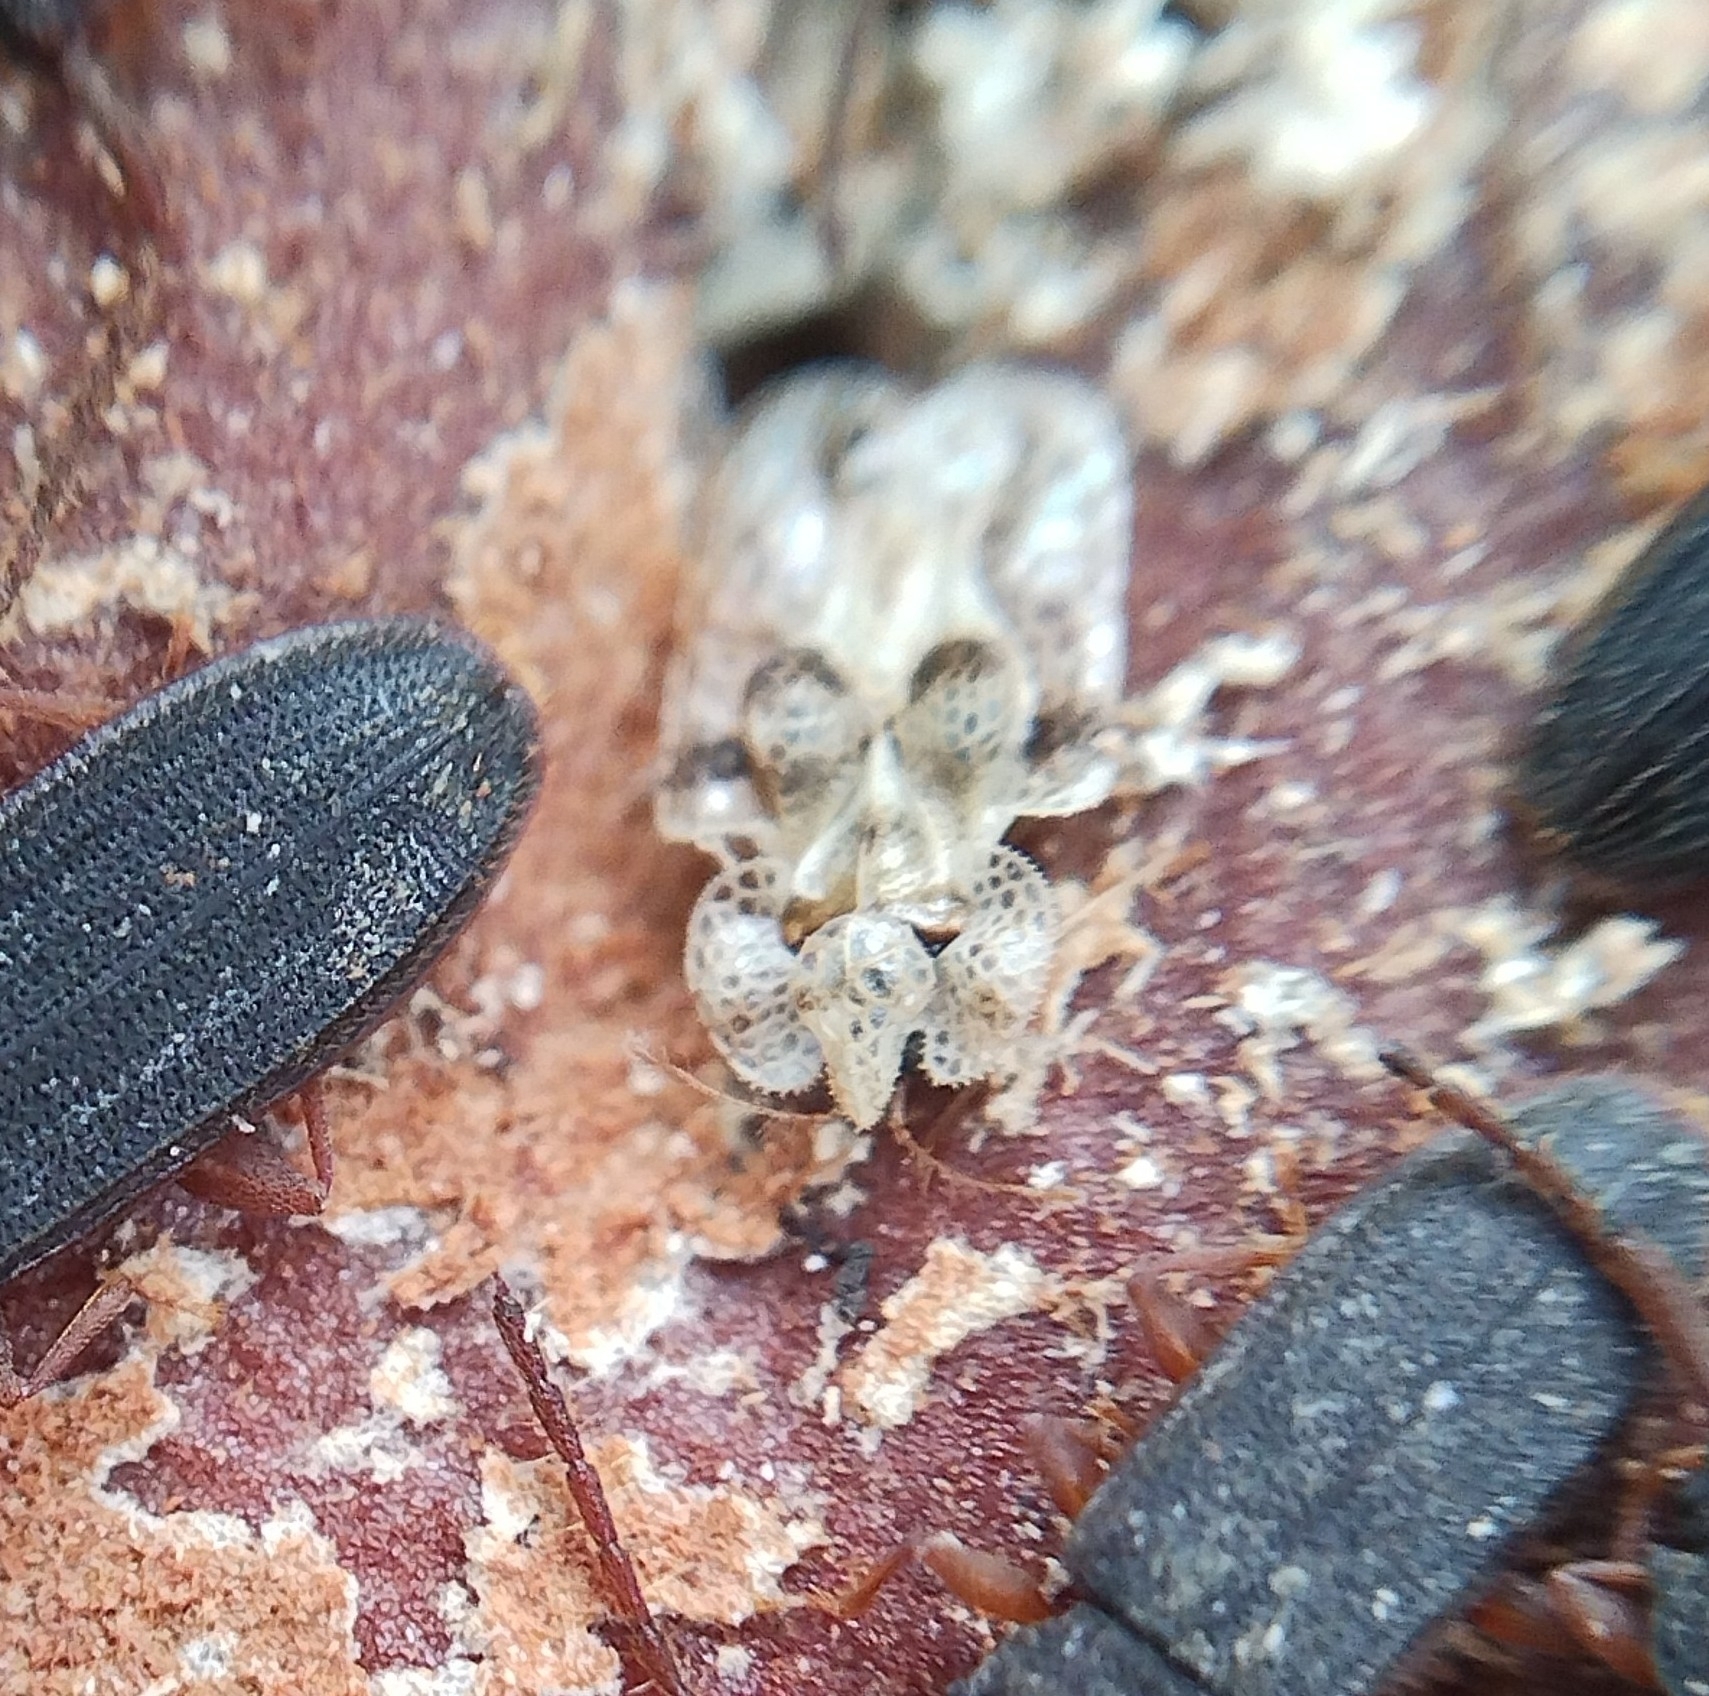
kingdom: Animalia
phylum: Arthropoda
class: Insecta
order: Hemiptera
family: Tingidae
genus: Corythucha
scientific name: Corythucha arcuata
